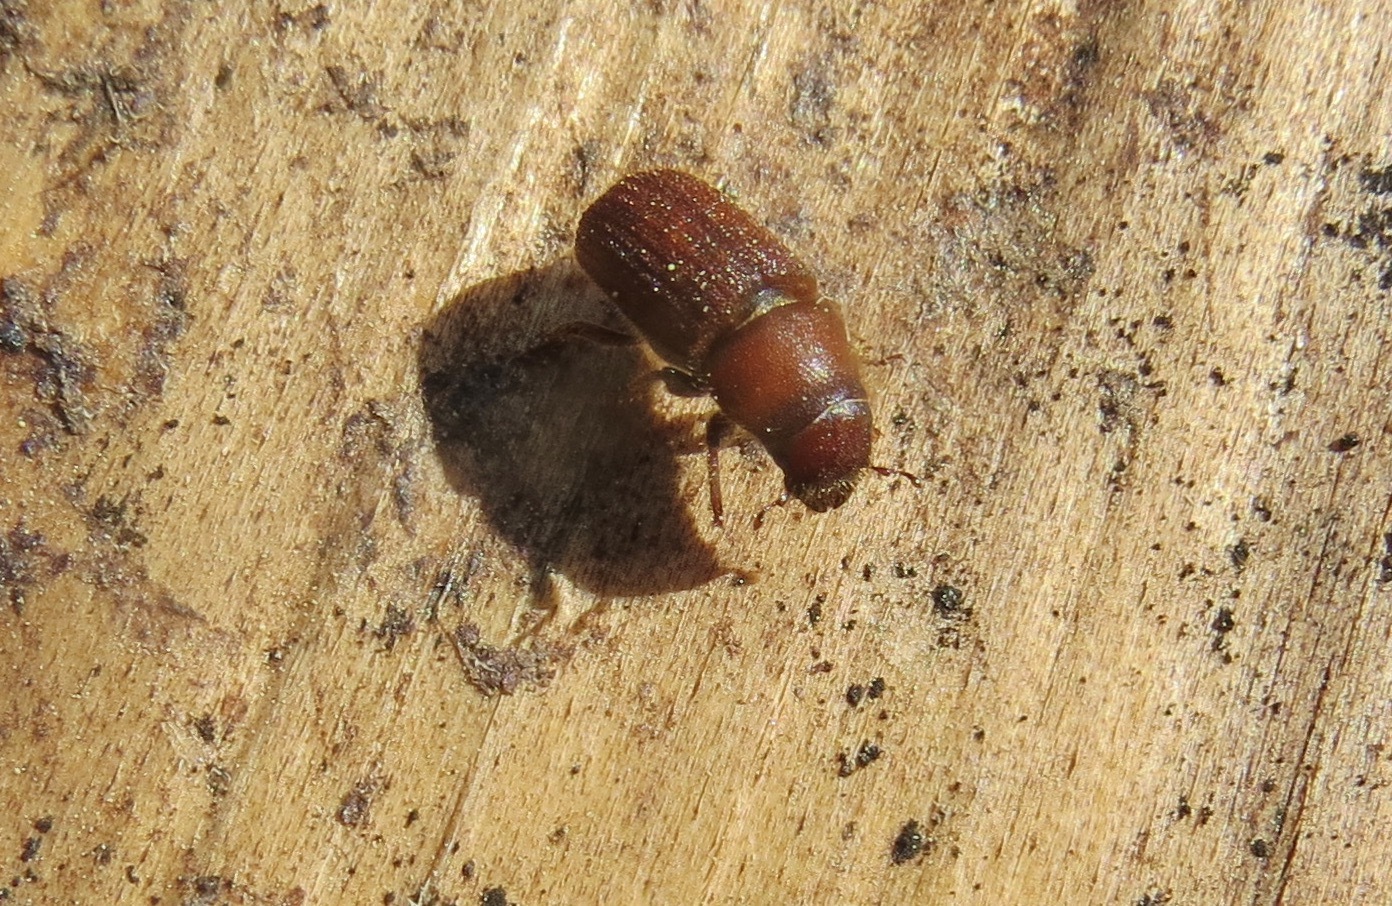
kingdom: Animalia
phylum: Arthropoda
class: Insecta
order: Coleoptera
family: Curculionidae
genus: Dendroctonus
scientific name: Dendroctonus valens
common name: Red turpentine beetle
